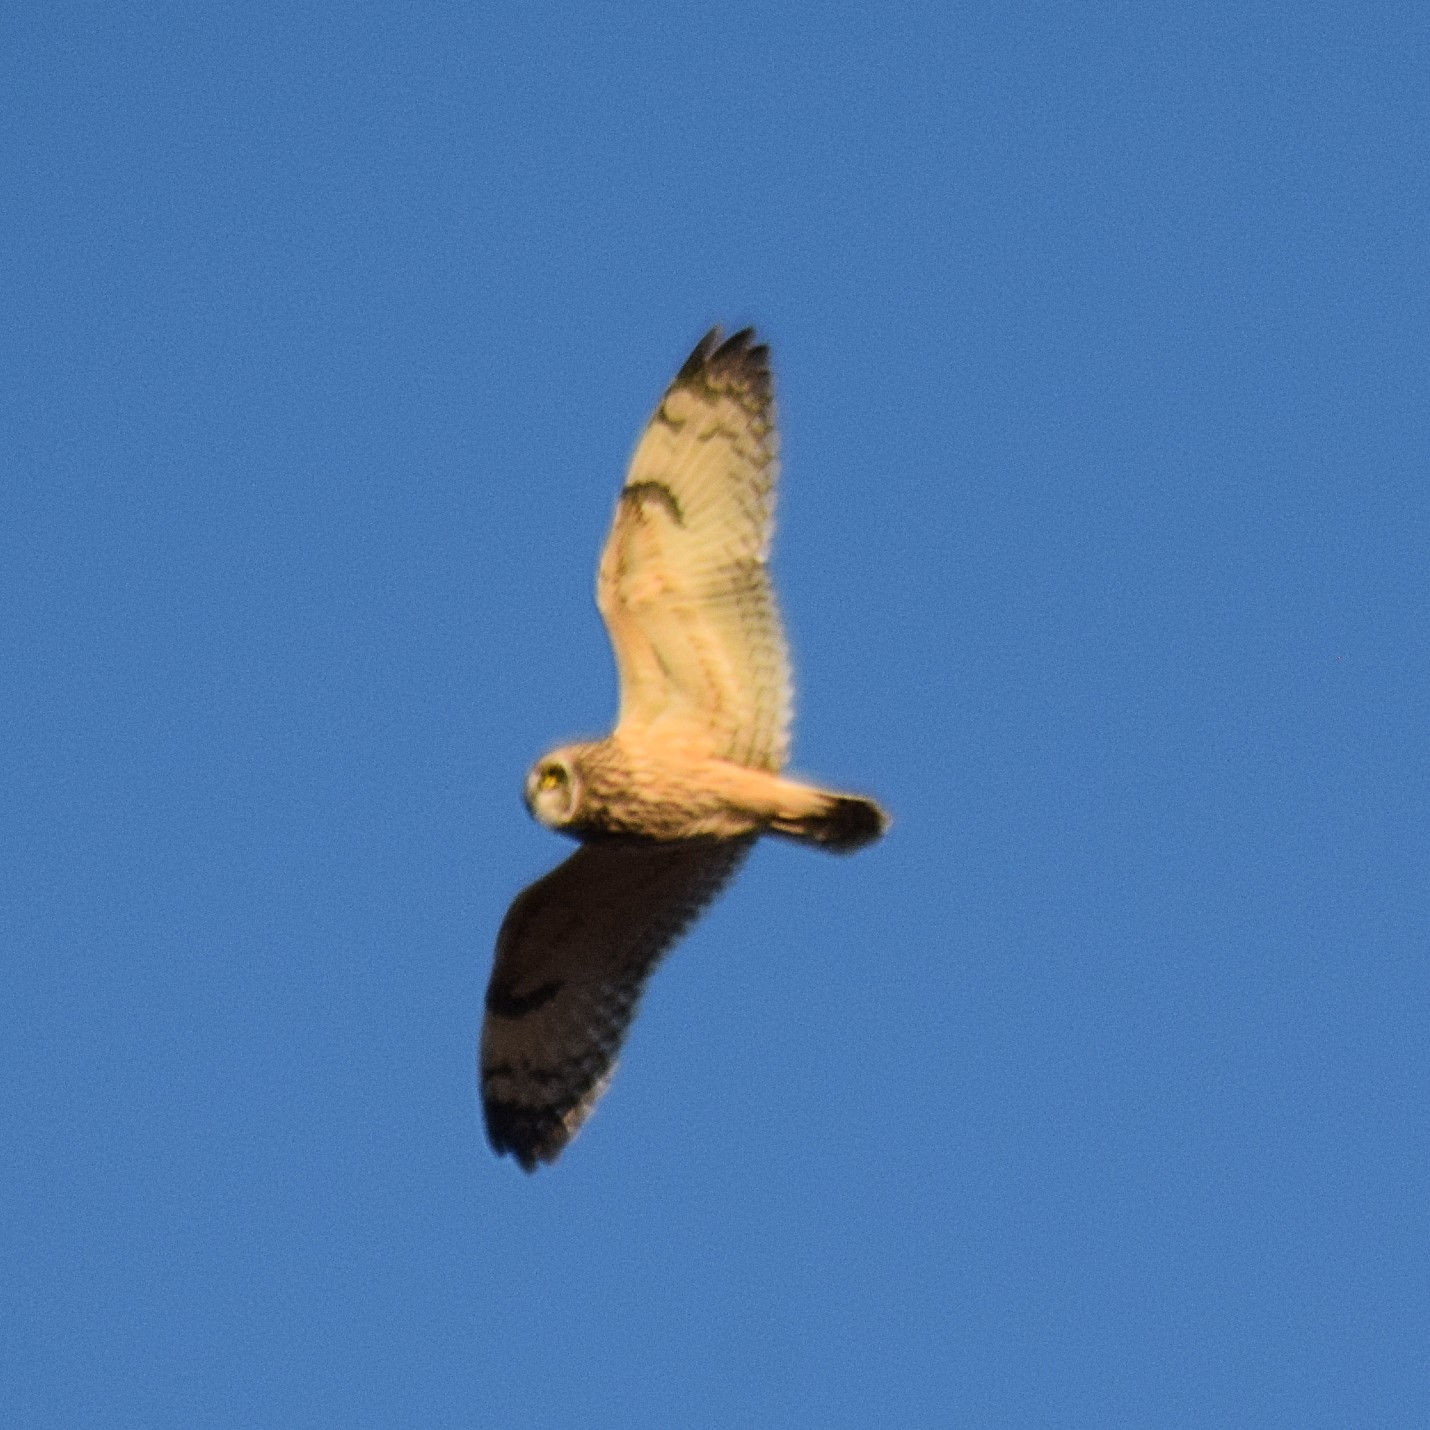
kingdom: Animalia
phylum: Chordata
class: Aves
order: Strigiformes
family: Strigidae
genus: Asio
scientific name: Asio flammeus
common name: Short-eared owl
